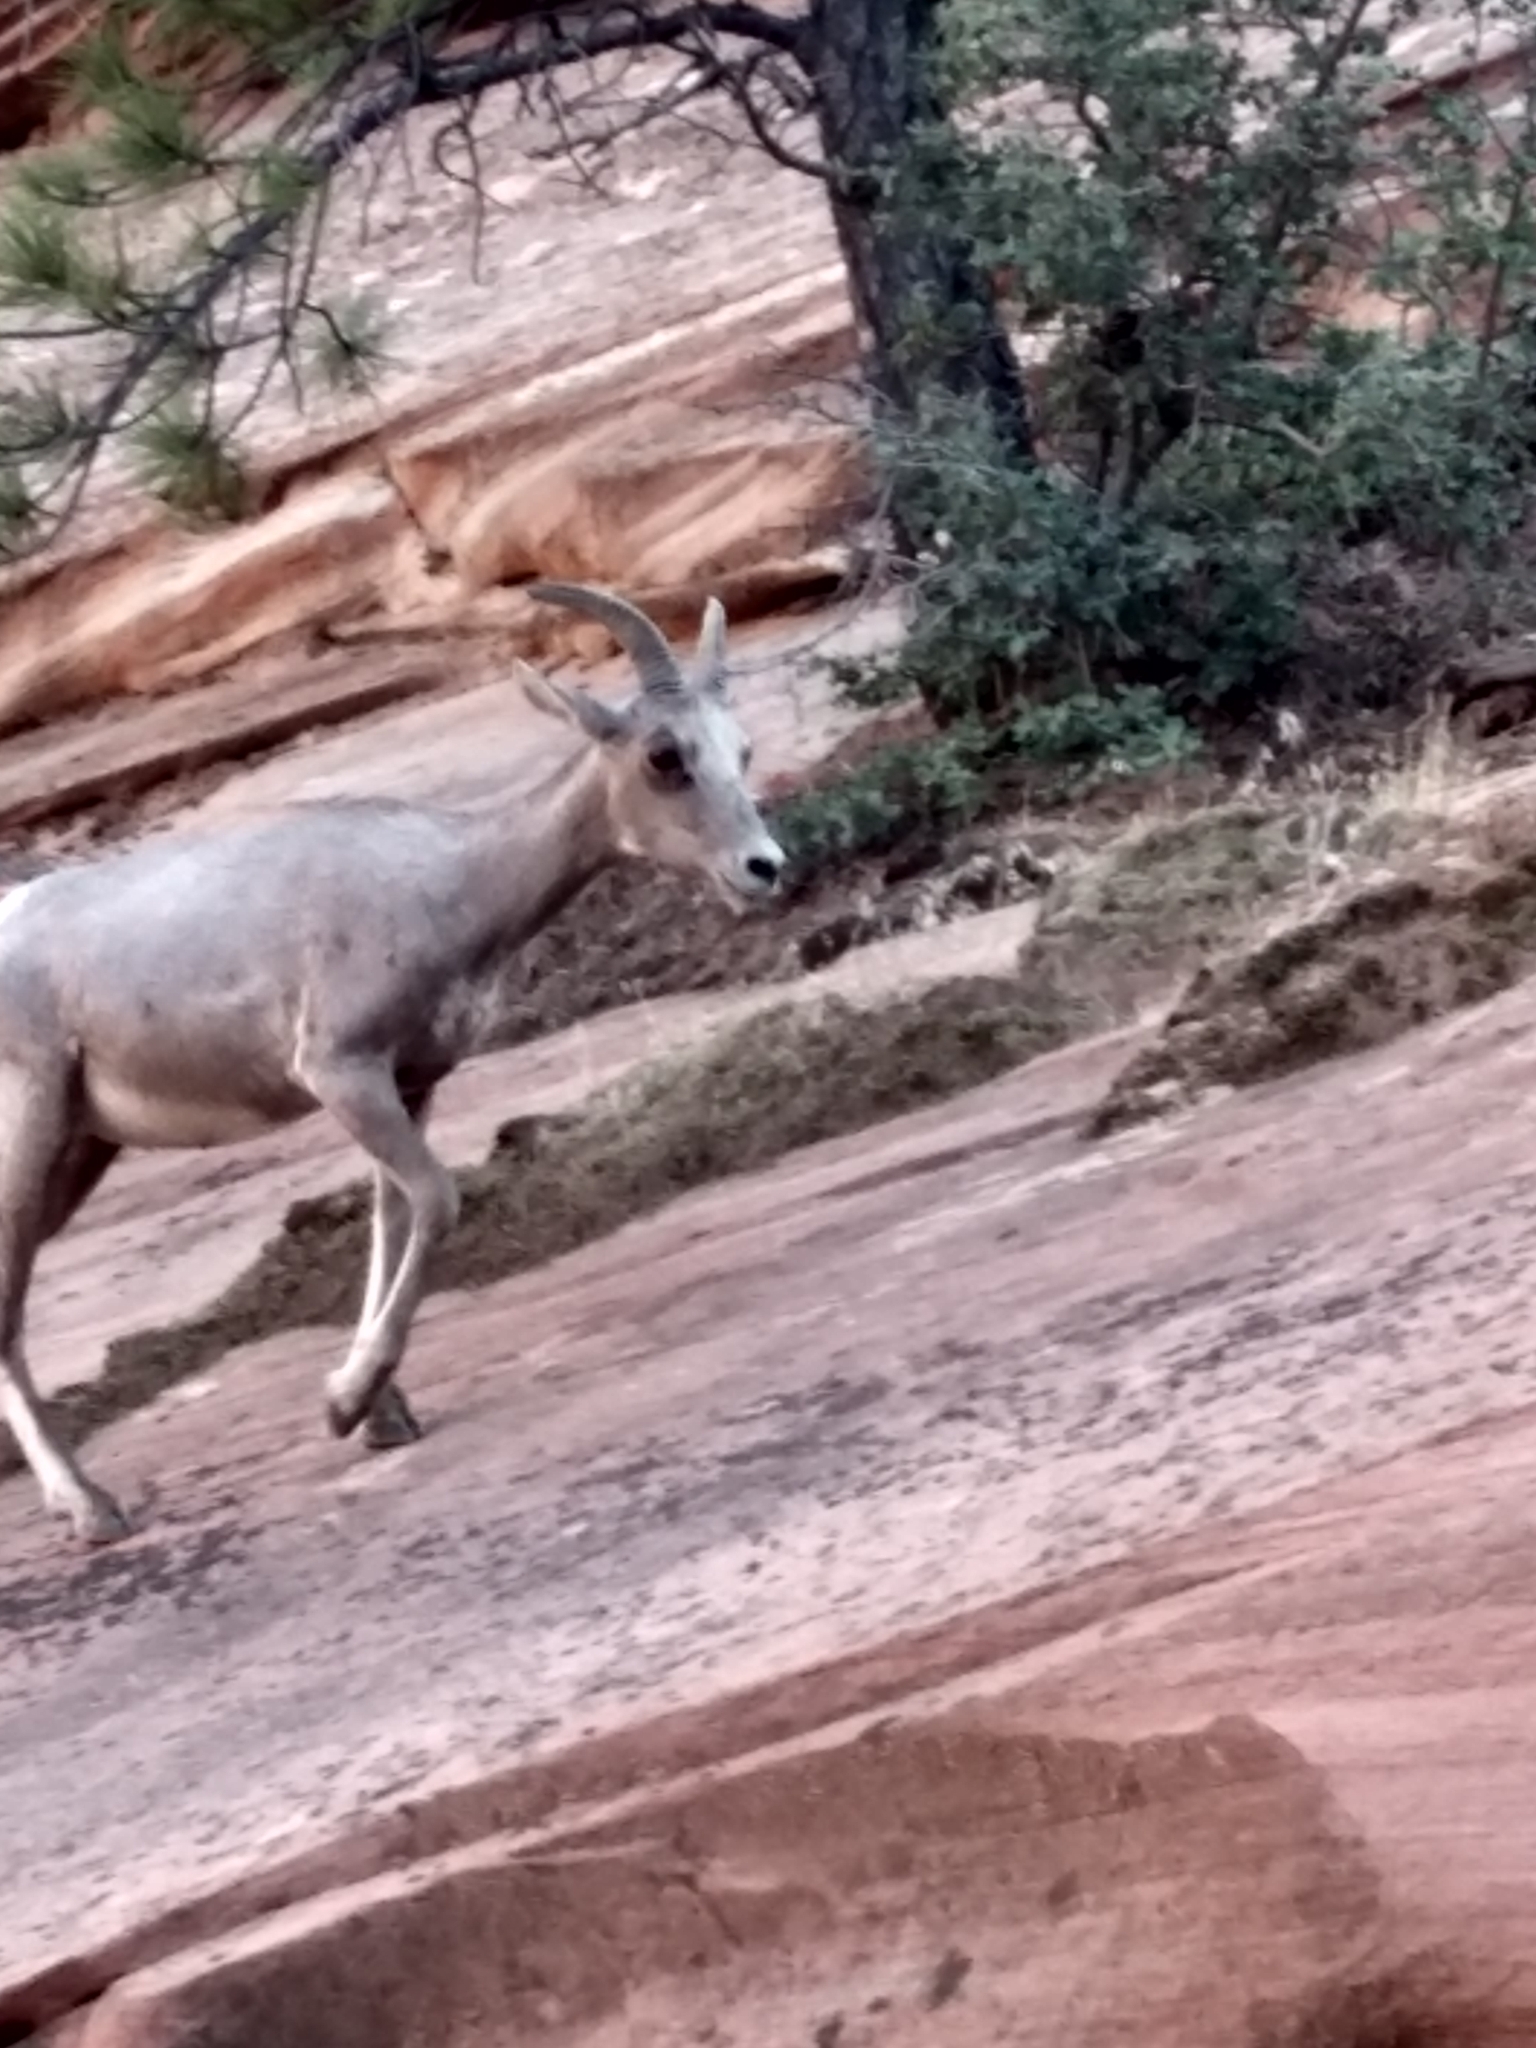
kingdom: Animalia
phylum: Chordata
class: Mammalia
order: Artiodactyla
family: Bovidae
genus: Ovis
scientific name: Ovis canadensis
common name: Bighorn sheep
